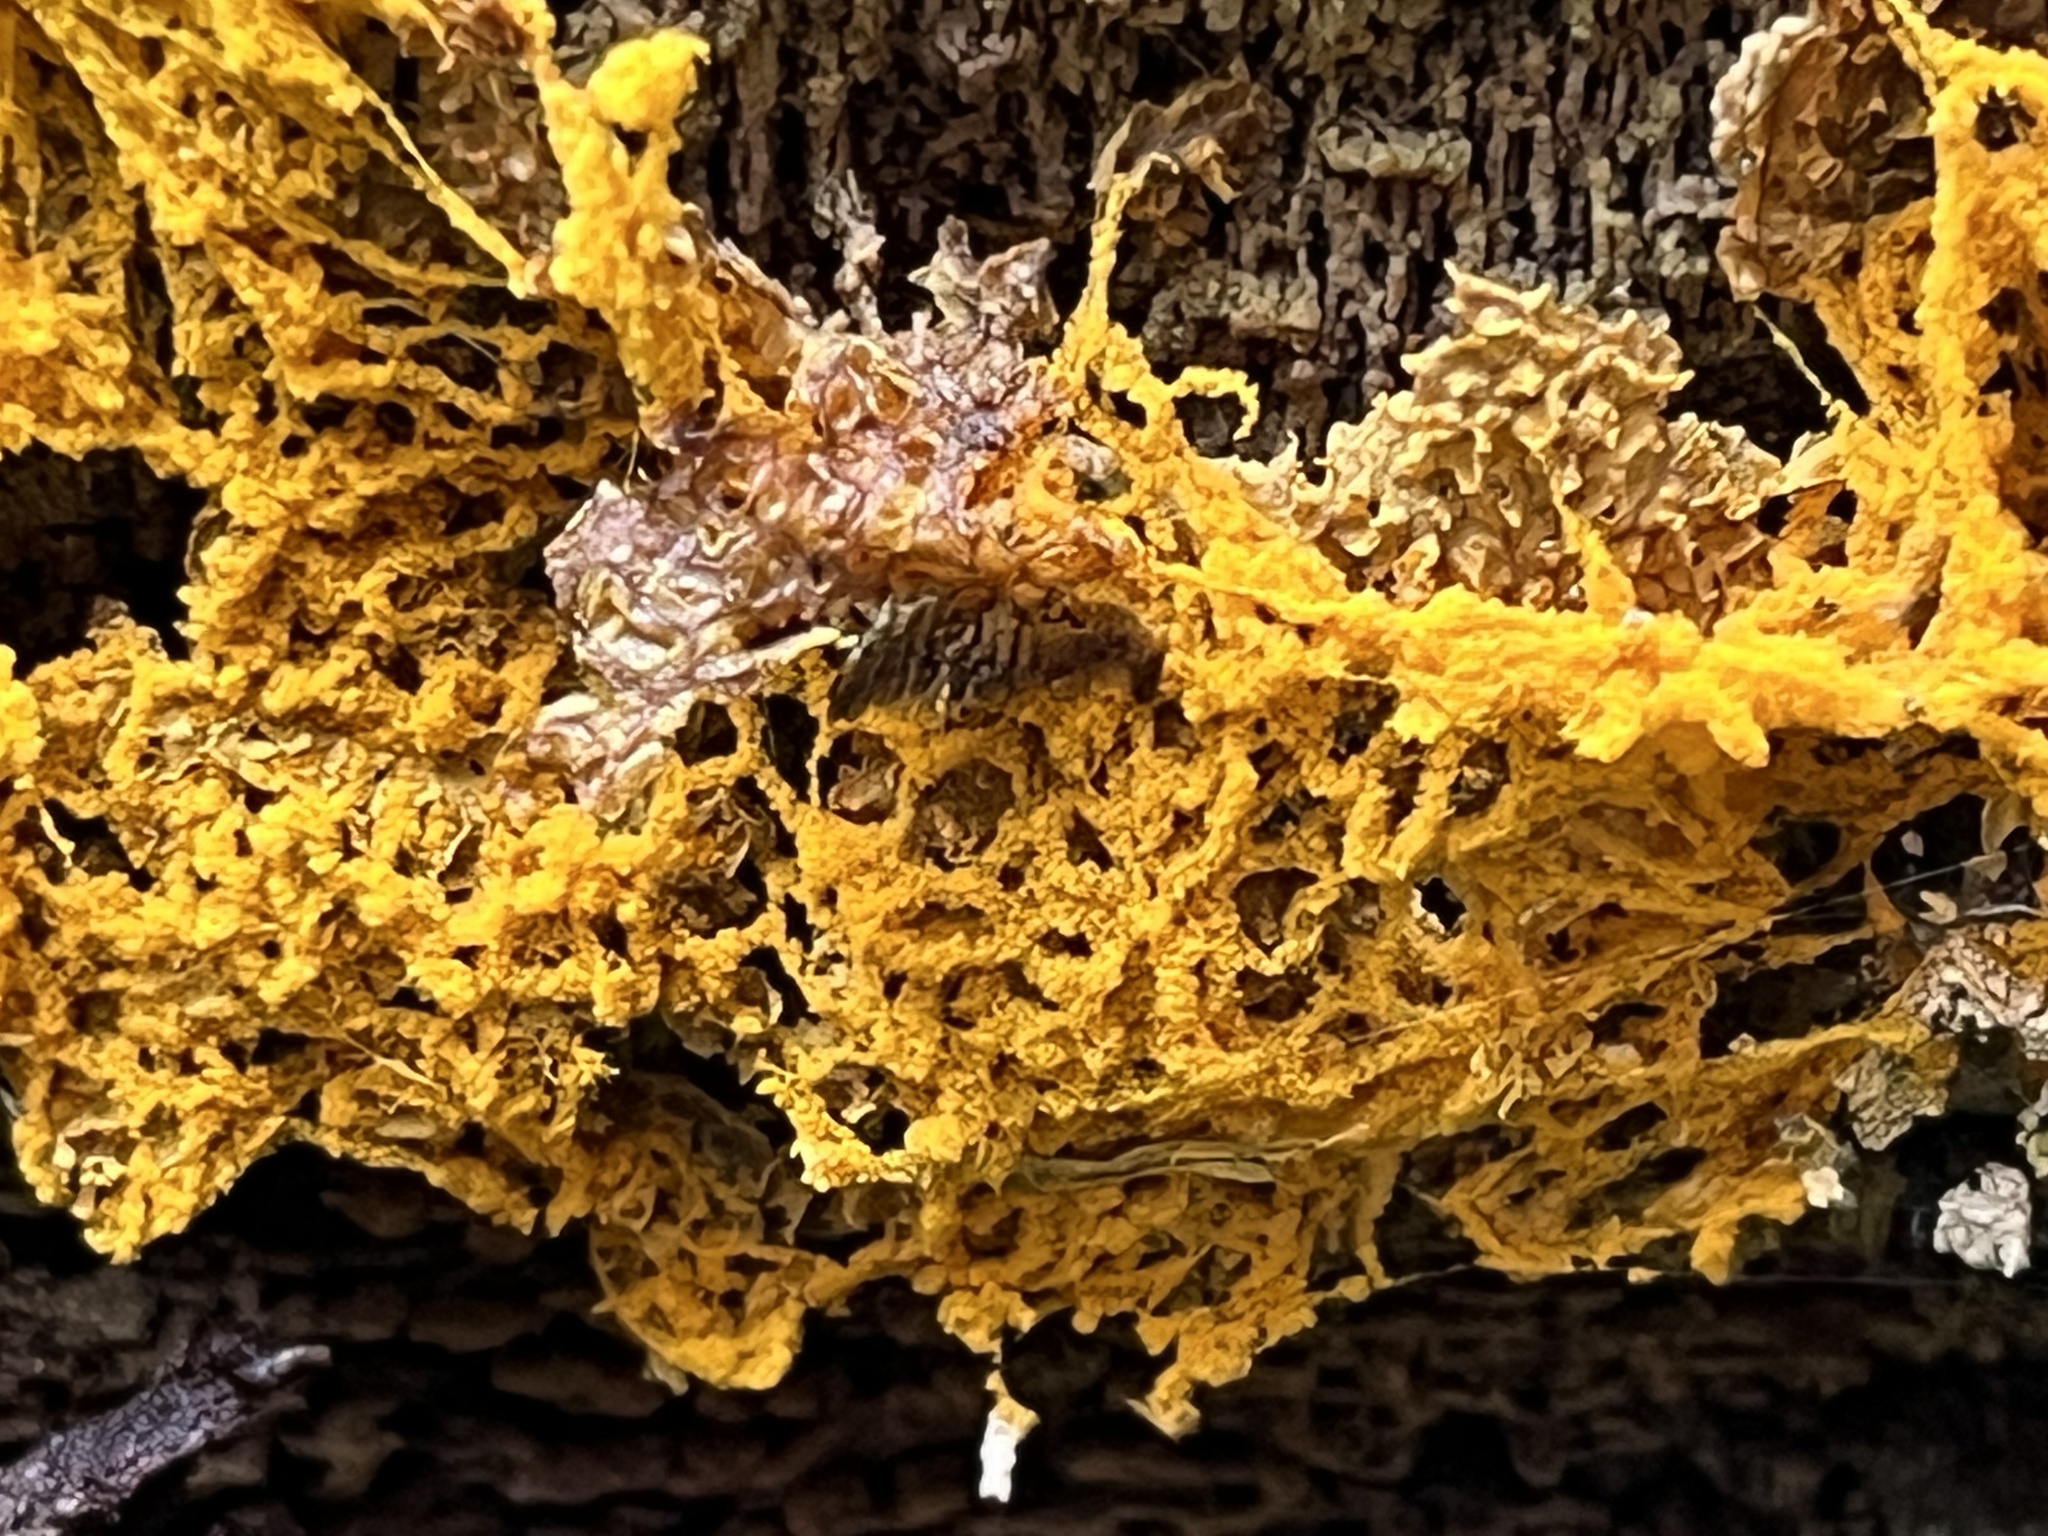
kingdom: Protozoa
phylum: Mycetozoa
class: Myxomycetes
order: Trichiales
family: Arcyriaceae
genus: Hemitrichia
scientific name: Hemitrichia serpula
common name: Pretzel slime mold
